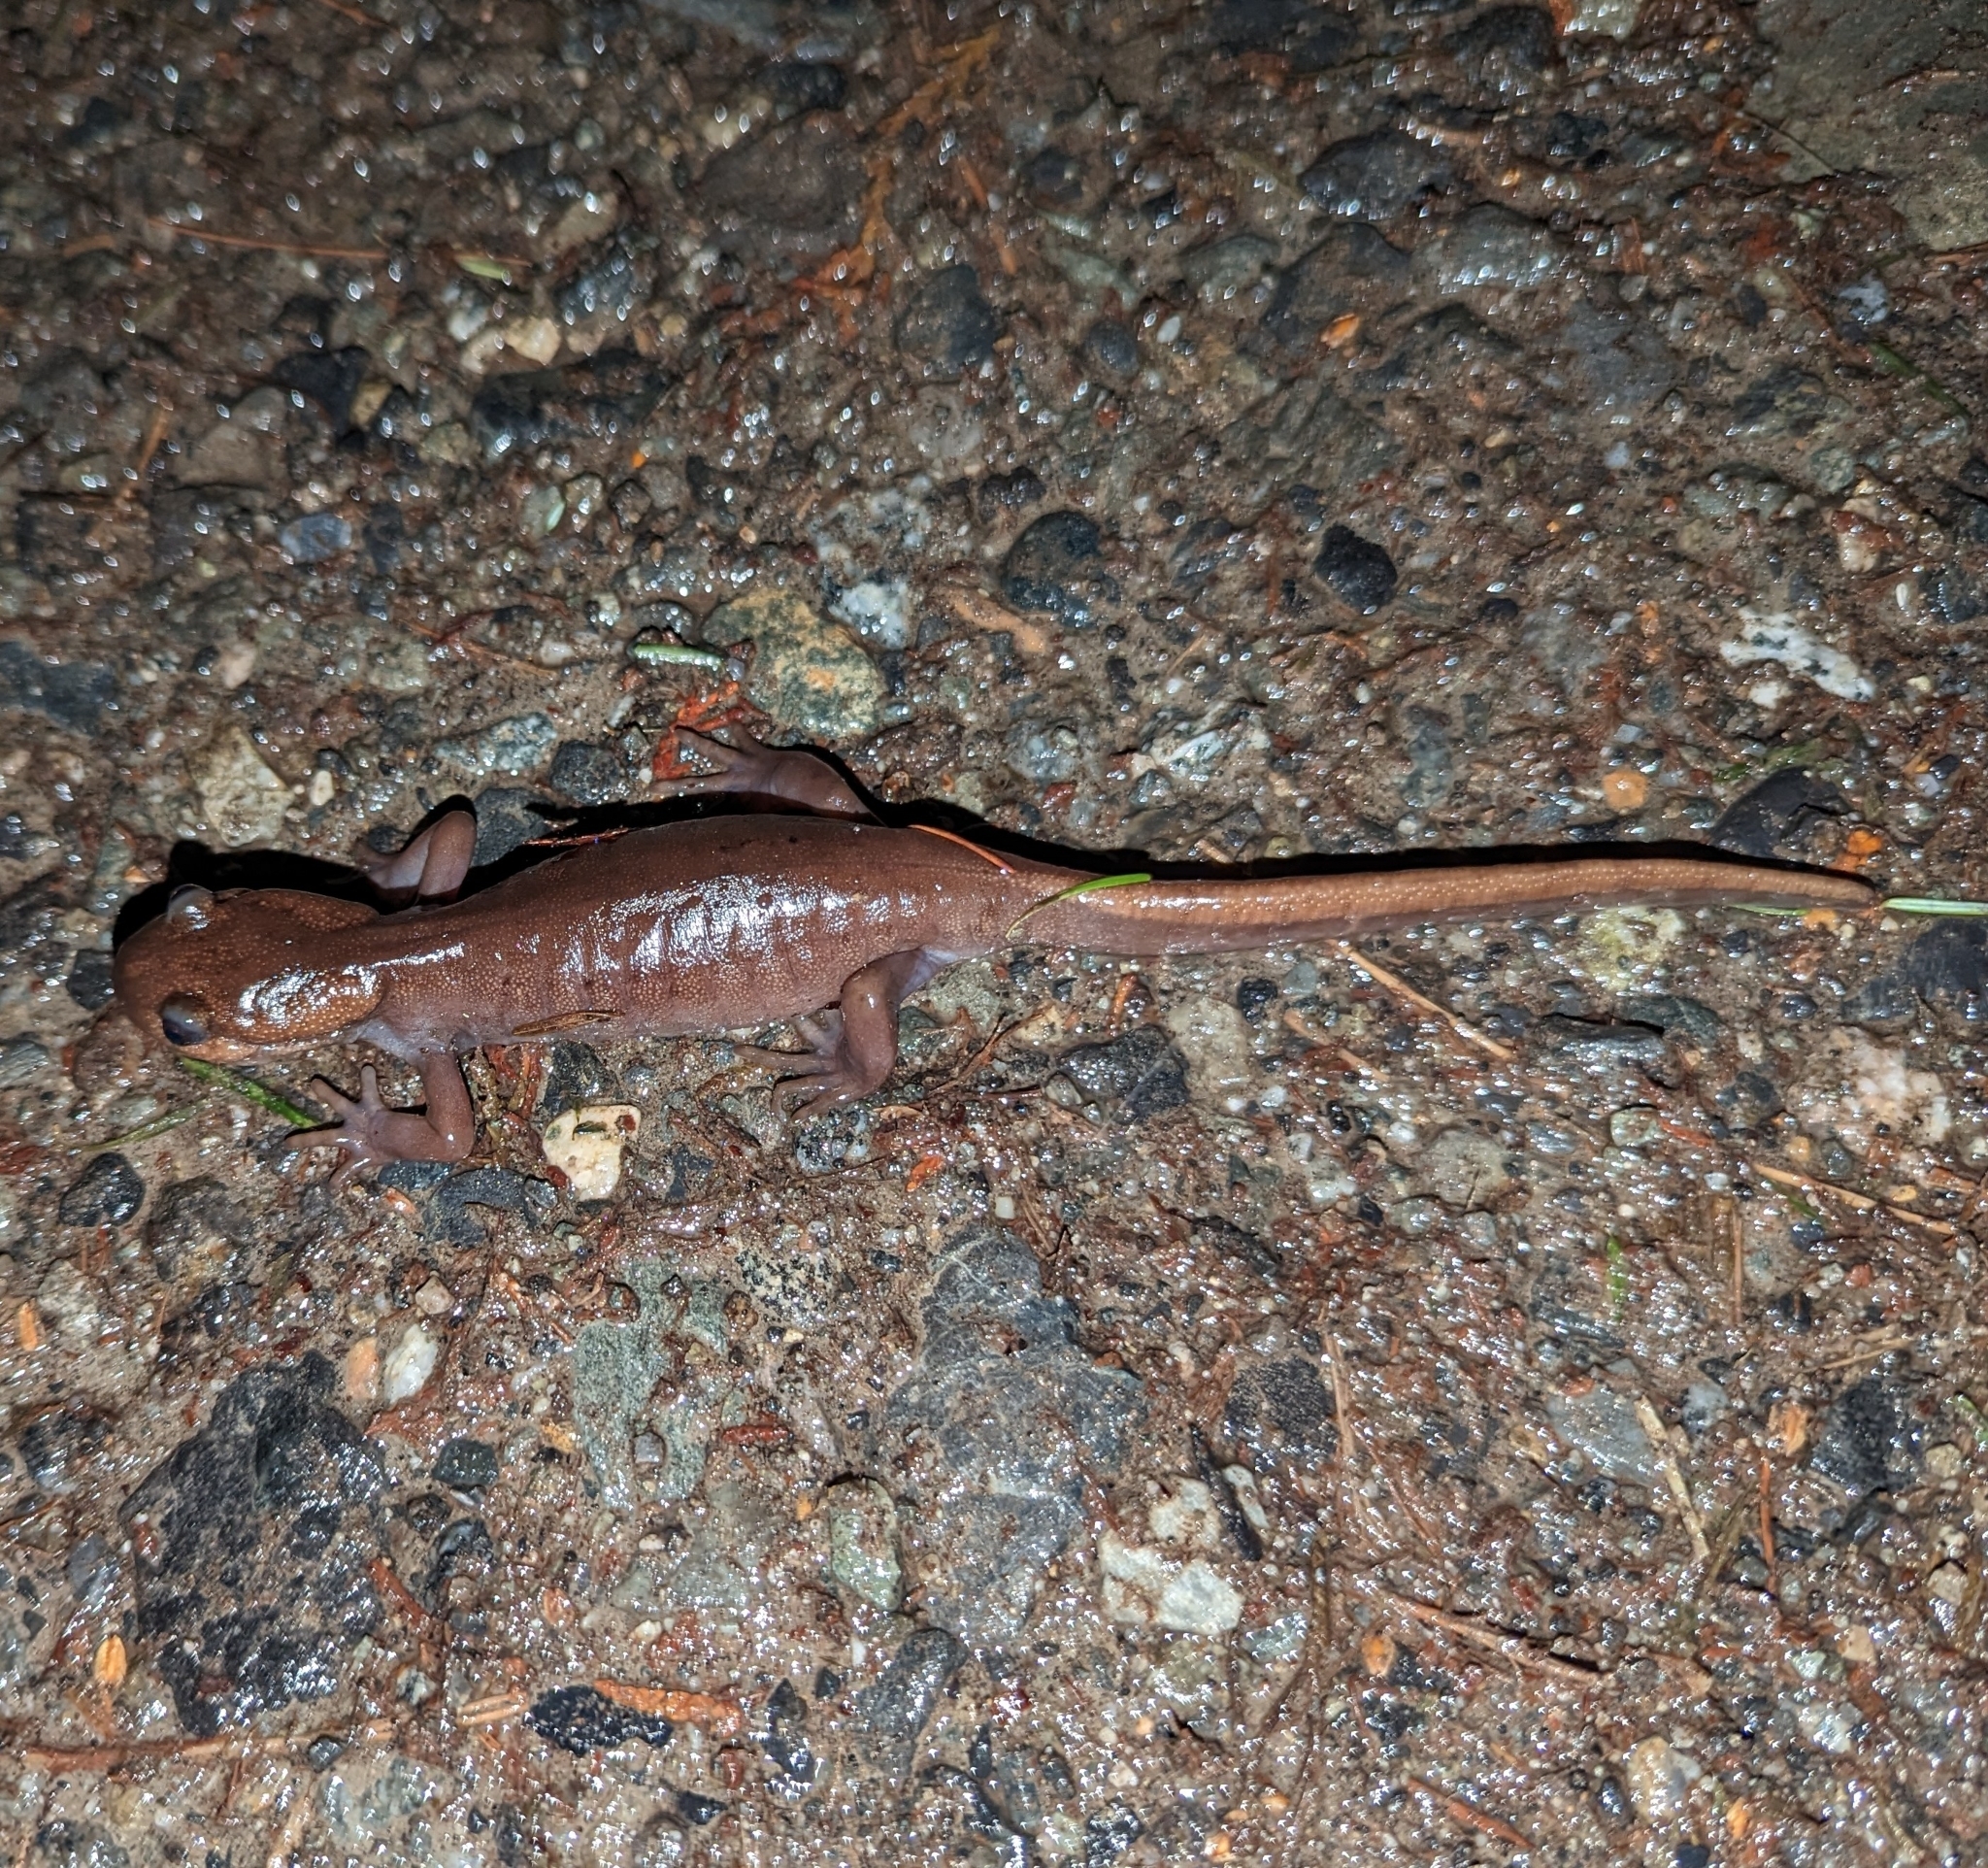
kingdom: Animalia
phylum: Chordata
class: Amphibia
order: Caudata
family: Ambystomatidae
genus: Ambystoma
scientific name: Ambystoma gracile
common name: Northwestern salamander
